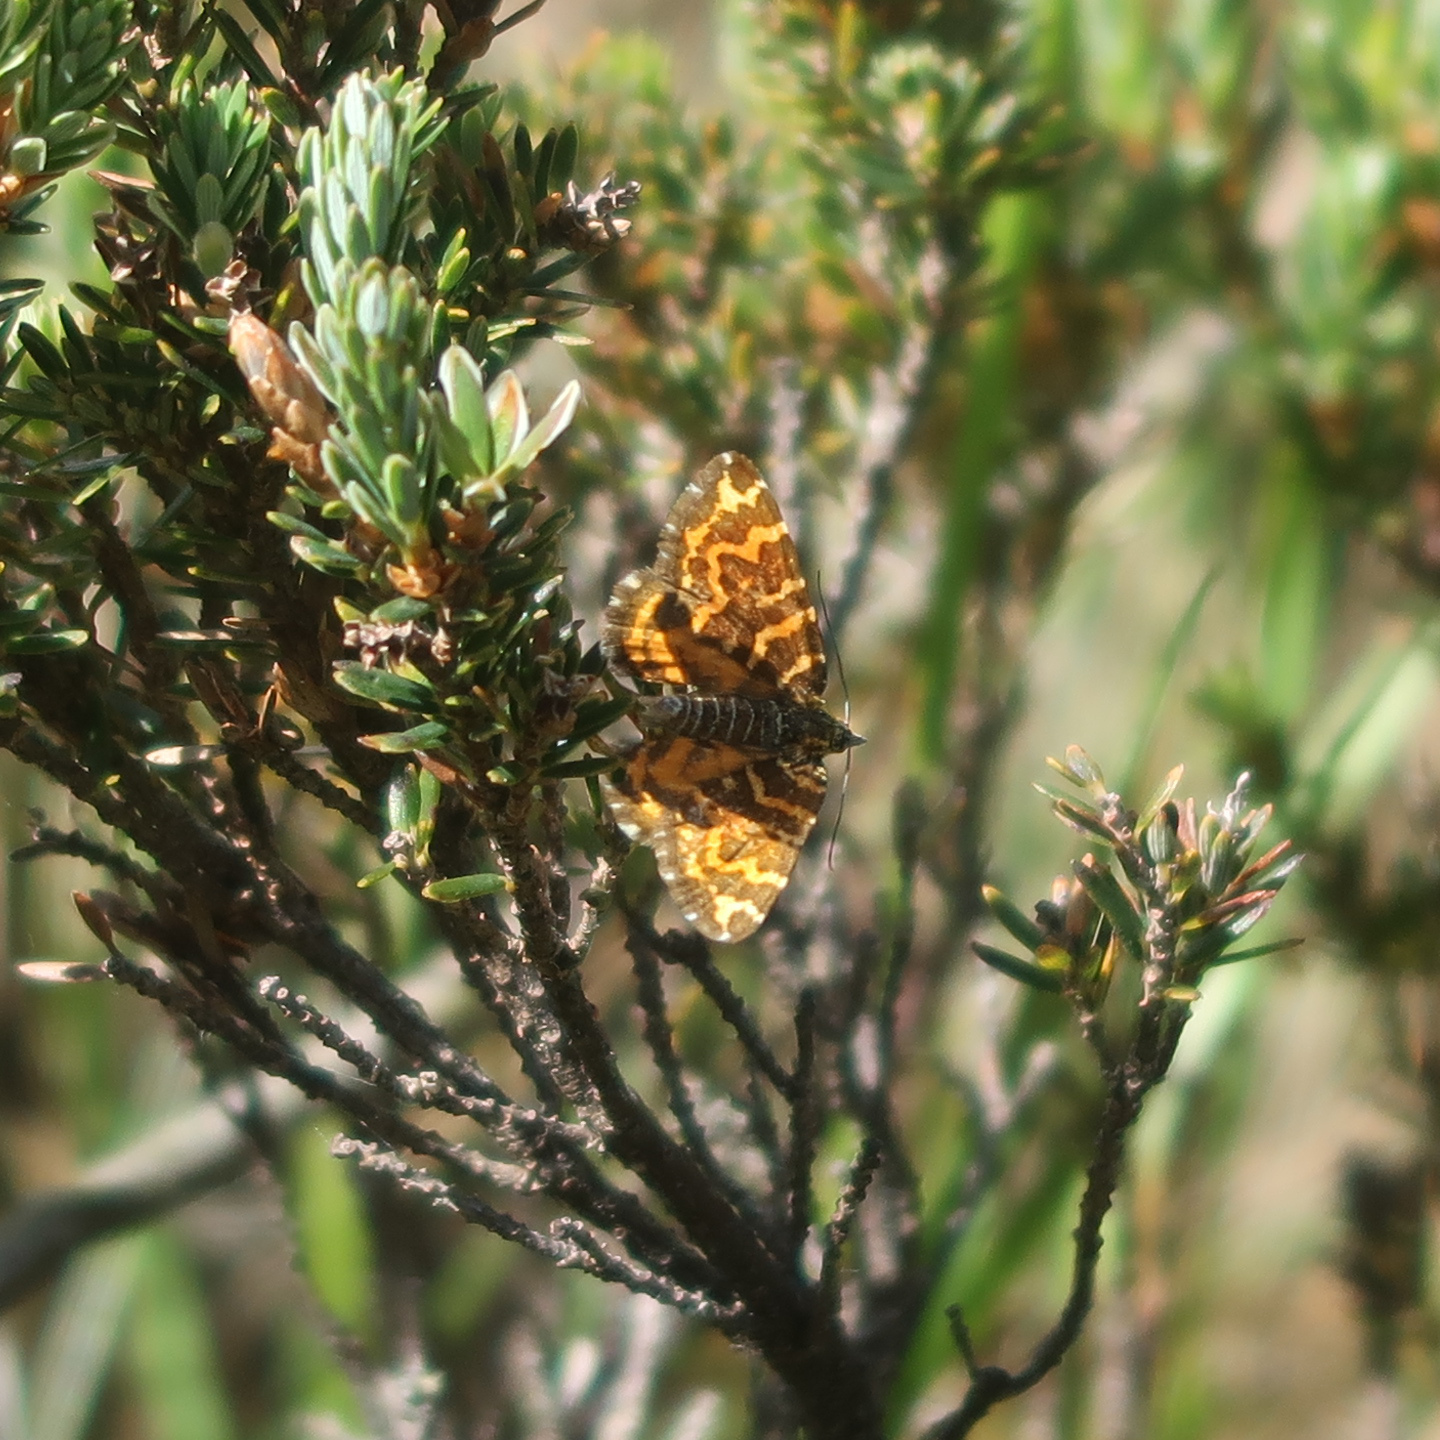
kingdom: Animalia
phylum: Arthropoda
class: Insecta
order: Lepidoptera
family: Geometridae
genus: Chrysolarentia
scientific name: Chrysolarentia chrysocyma
